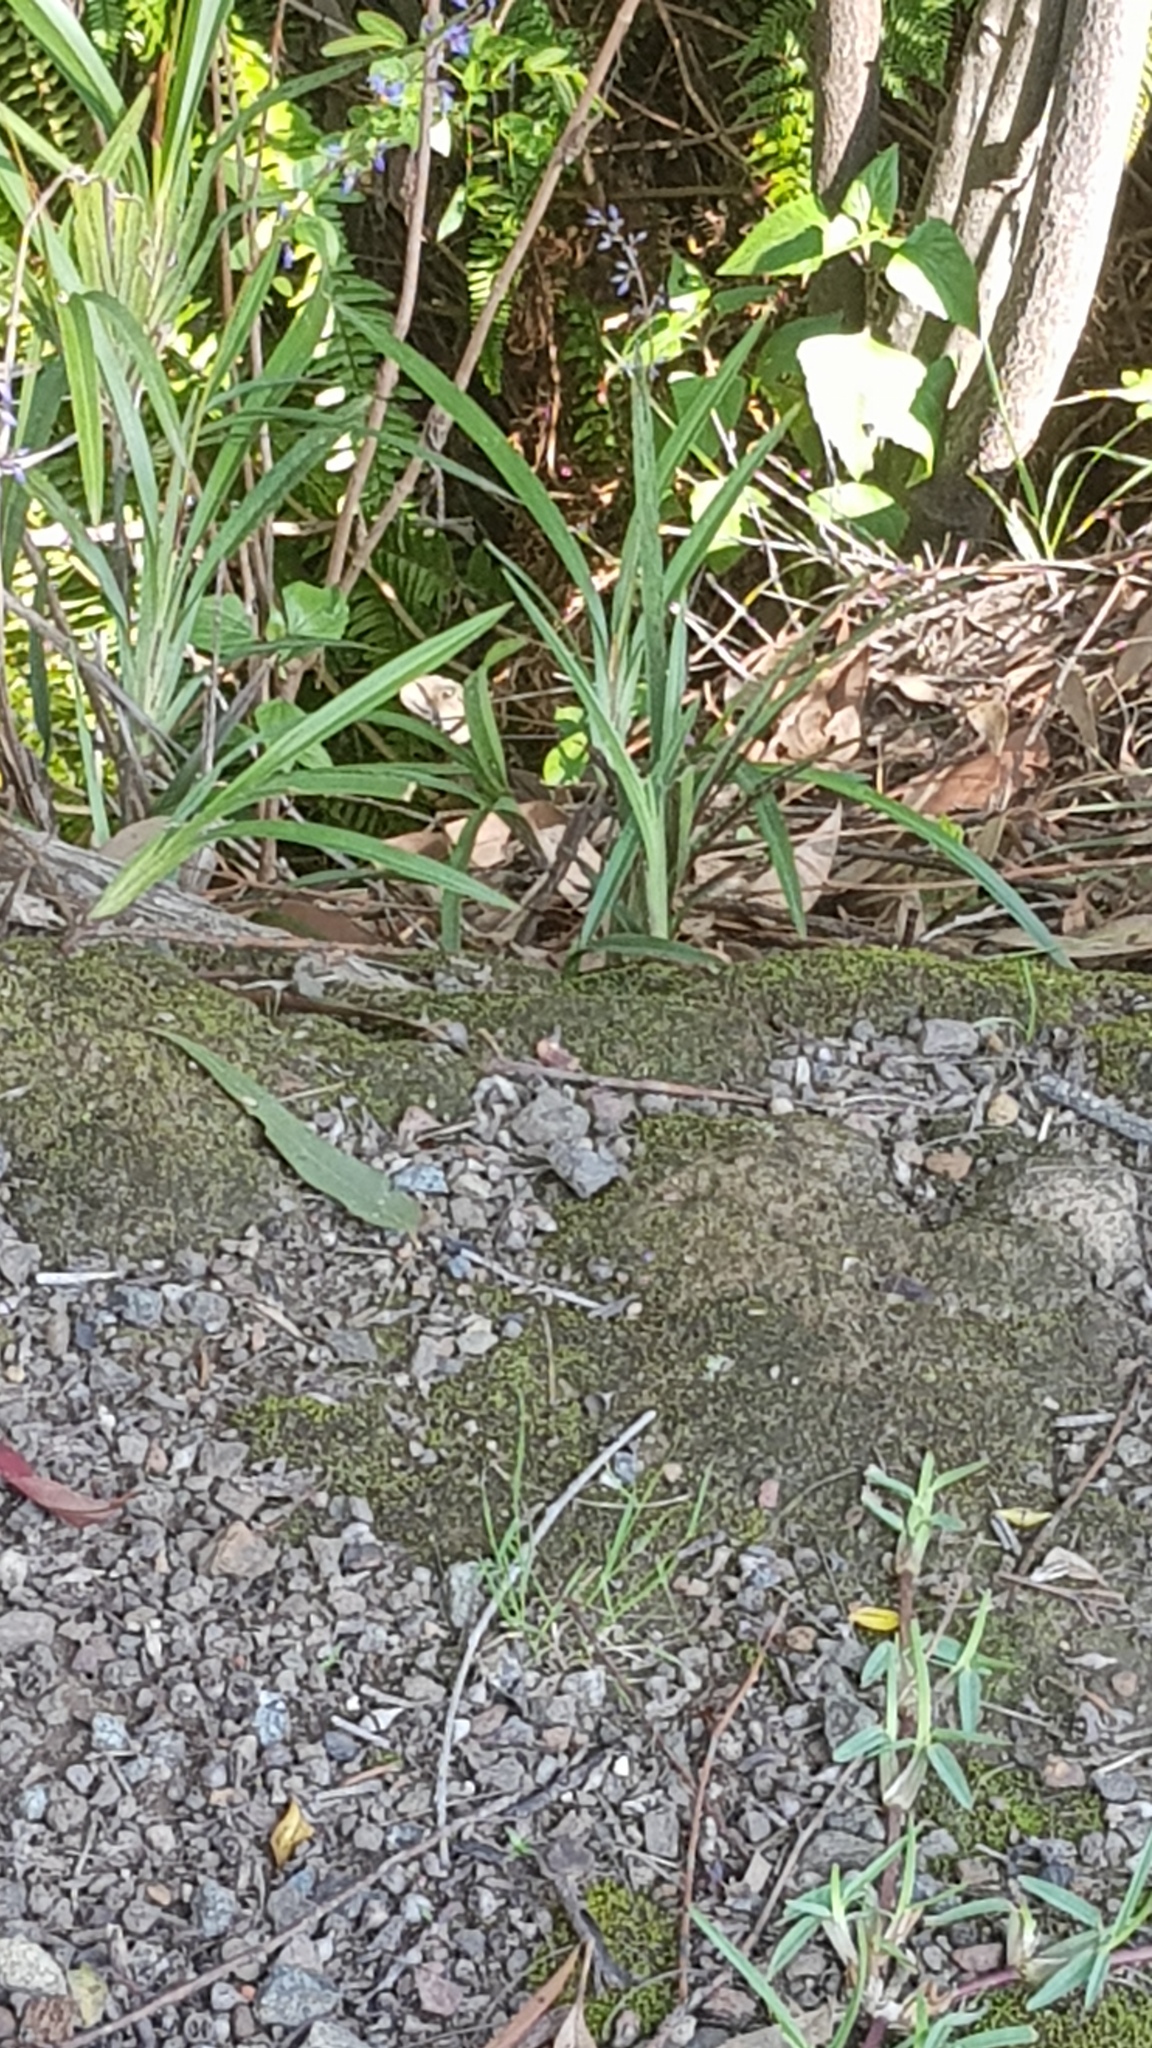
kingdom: Animalia
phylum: Chordata
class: Squamata
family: Agamidae
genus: Intellagama
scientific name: Intellagama lesueurii
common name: Eastern water dragon
